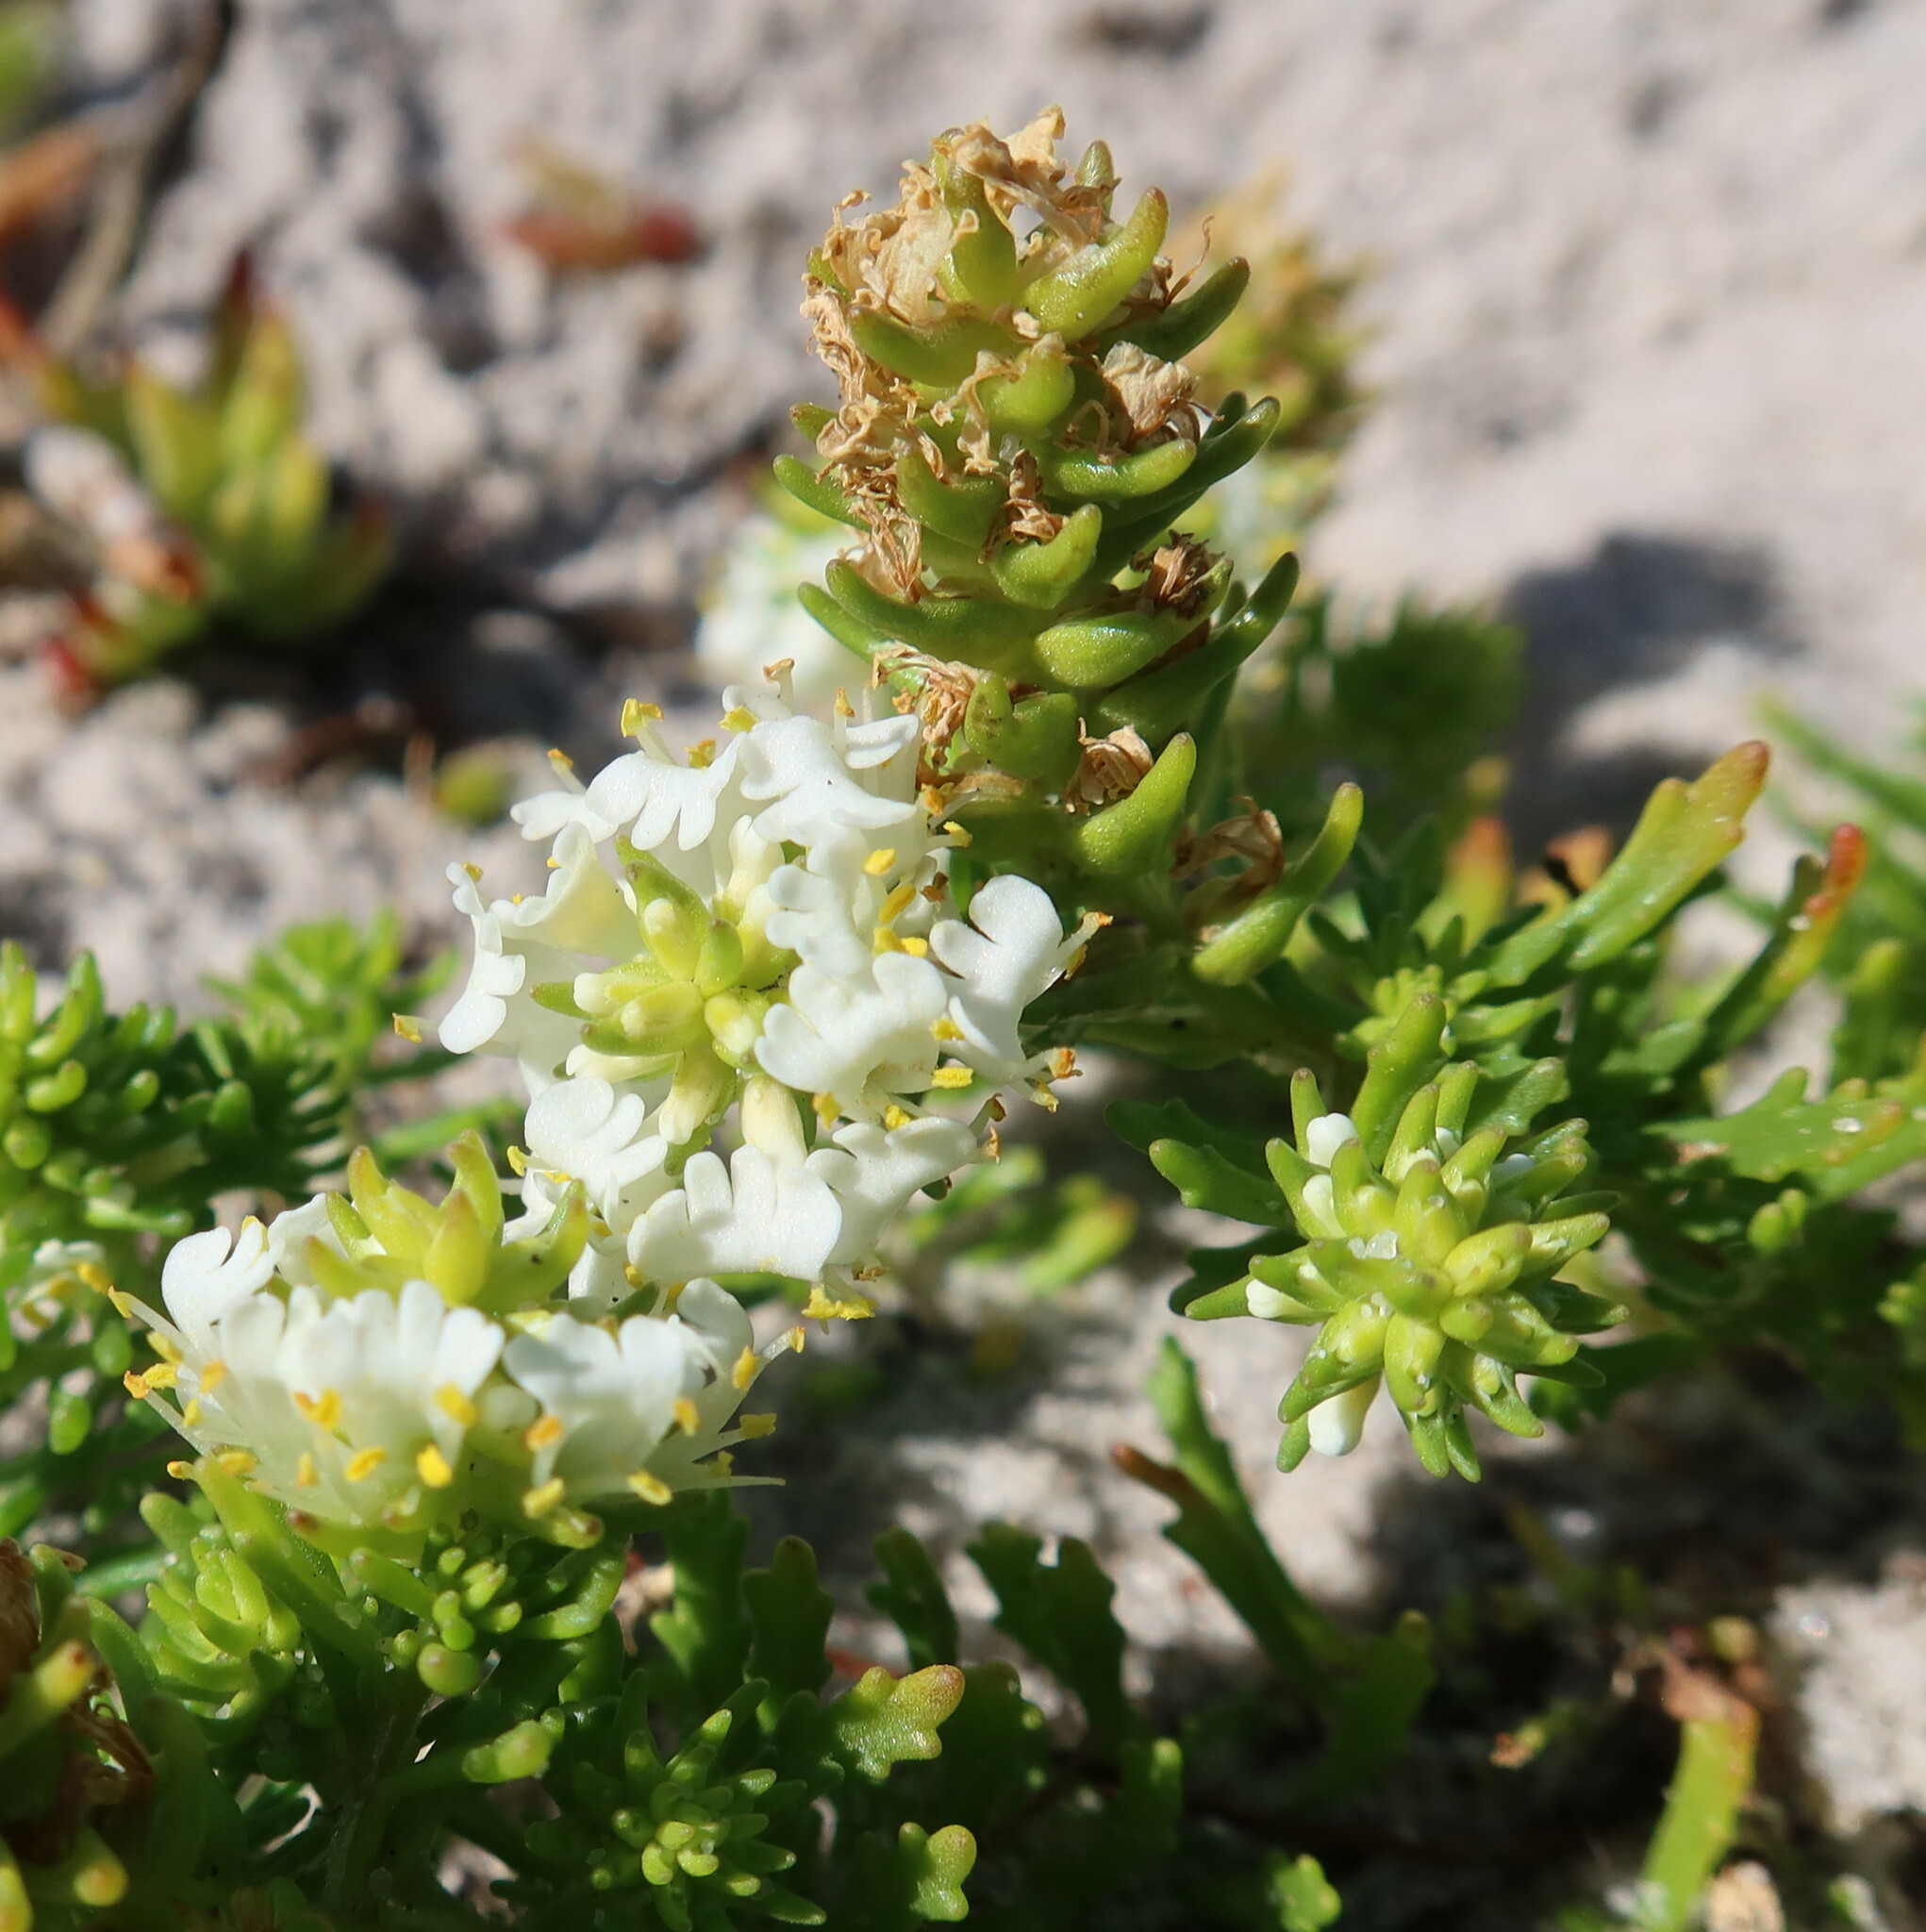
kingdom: Plantae
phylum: Tracheophyta
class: Magnoliopsida
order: Lamiales
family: Scrophulariaceae
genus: Dischisma
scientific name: Dischisma ciliatum
